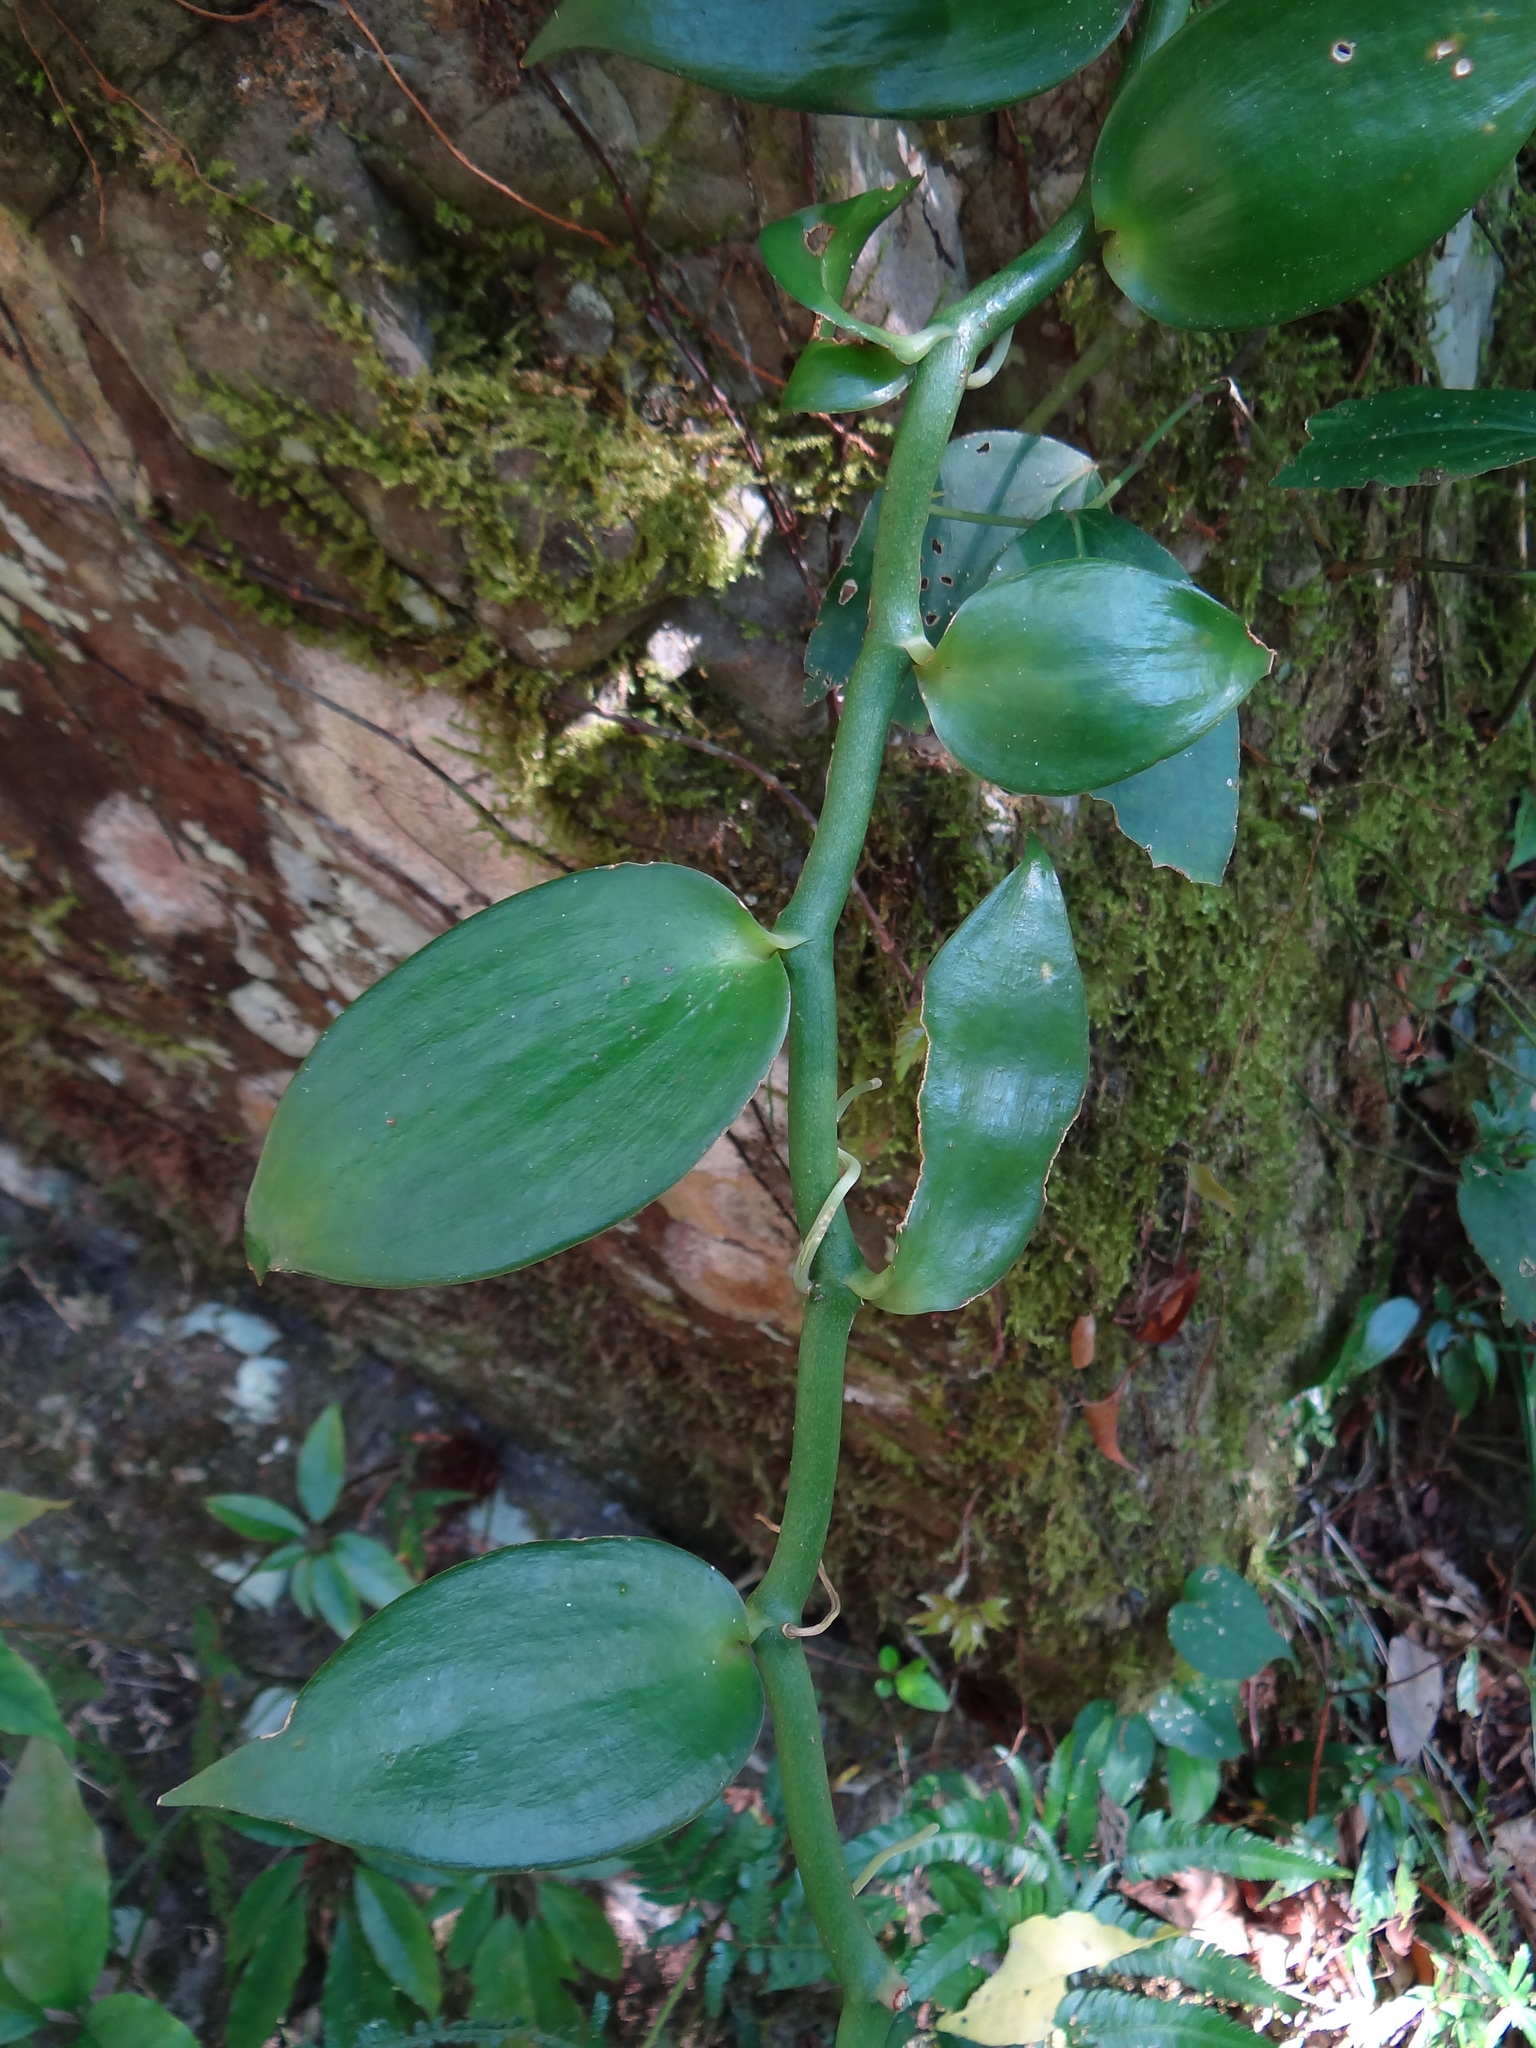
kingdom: Plantae
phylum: Tracheophyta
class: Liliopsida
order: Asparagales
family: Orchidaceae
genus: Vanilla
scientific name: Vanilla somae
